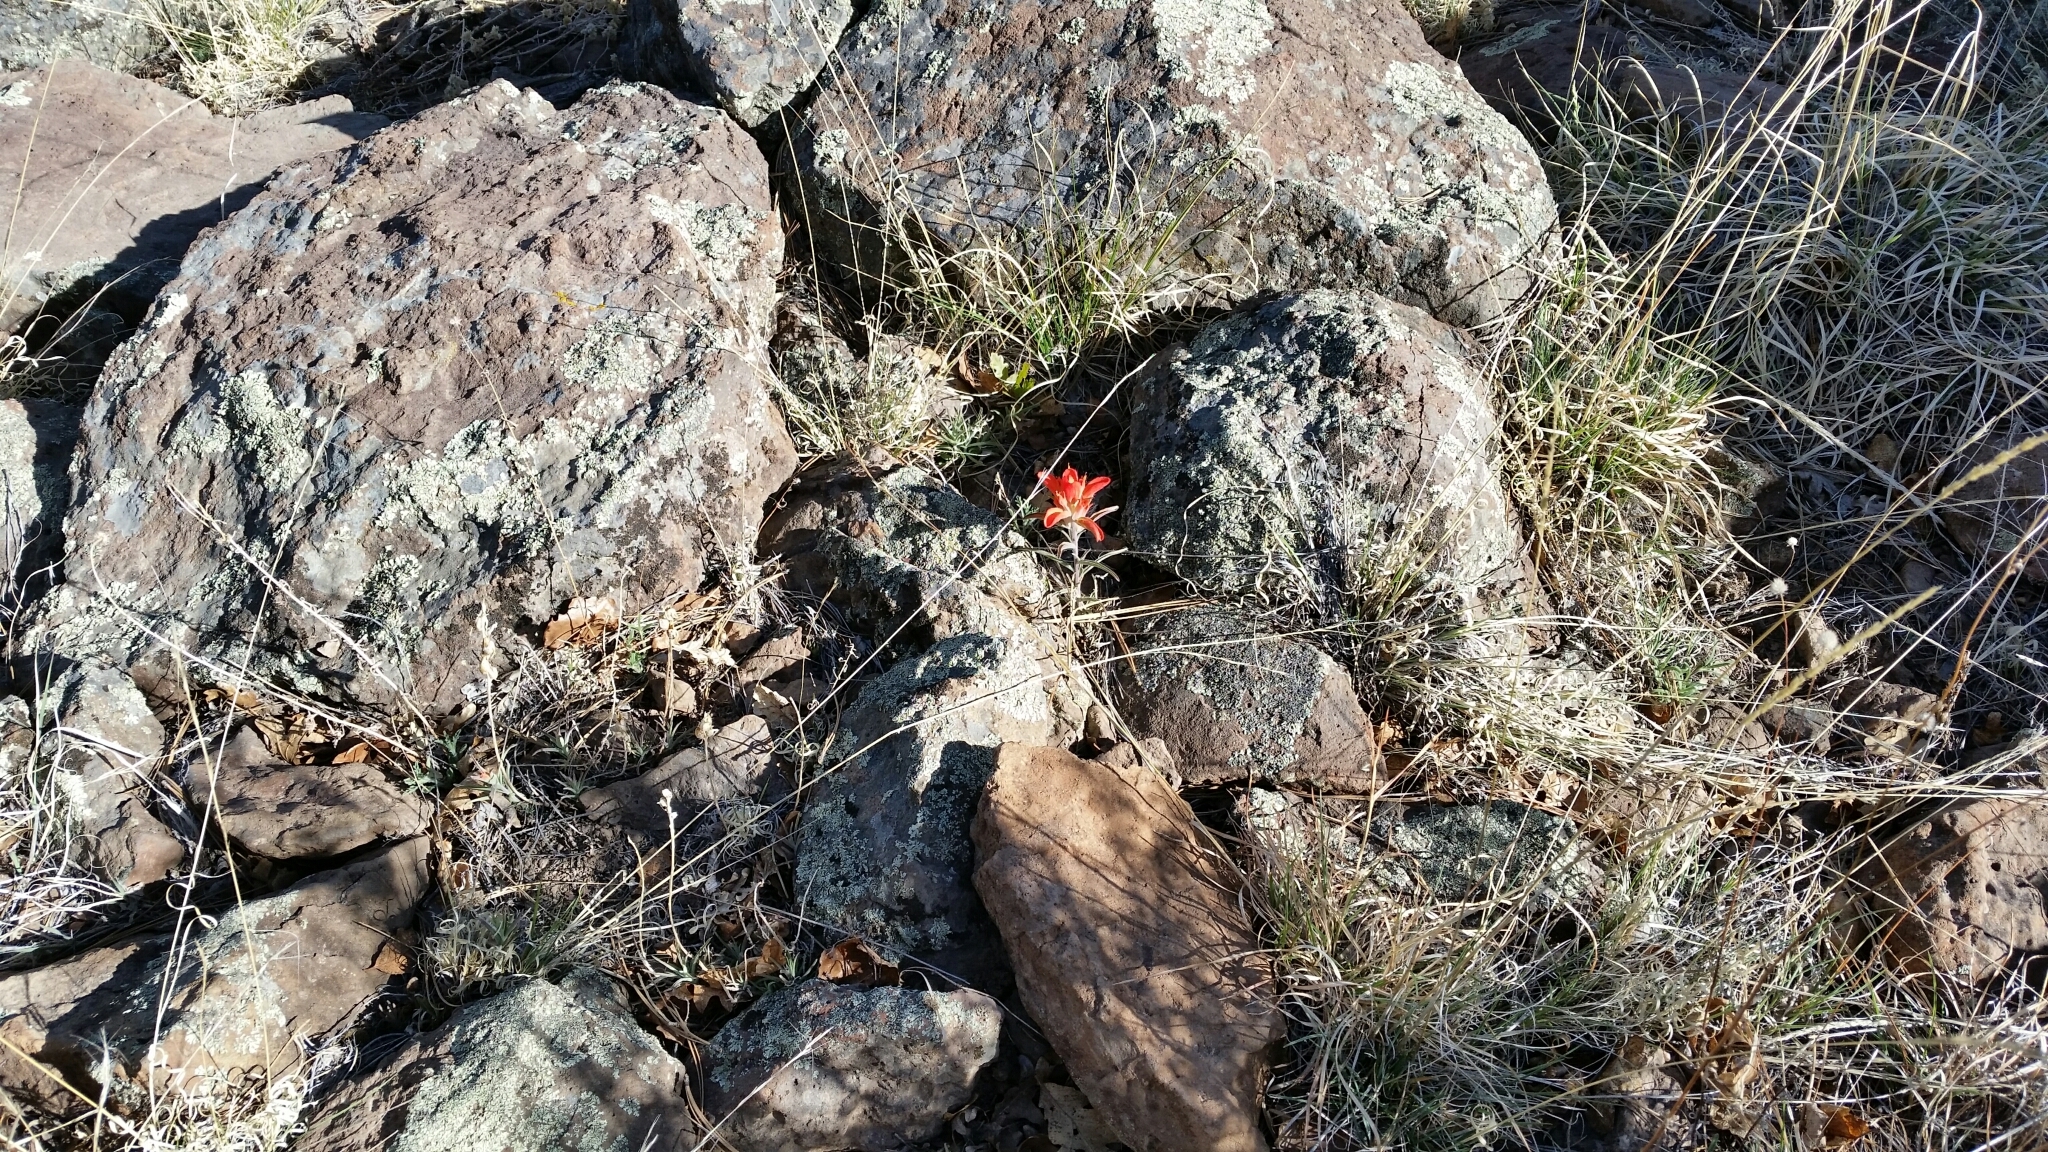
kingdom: Plantae
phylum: Tracheophyta
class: Magnoliopsida
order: Lamiales
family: Orobanchaceae
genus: Castilleja
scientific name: Castilleja integra
